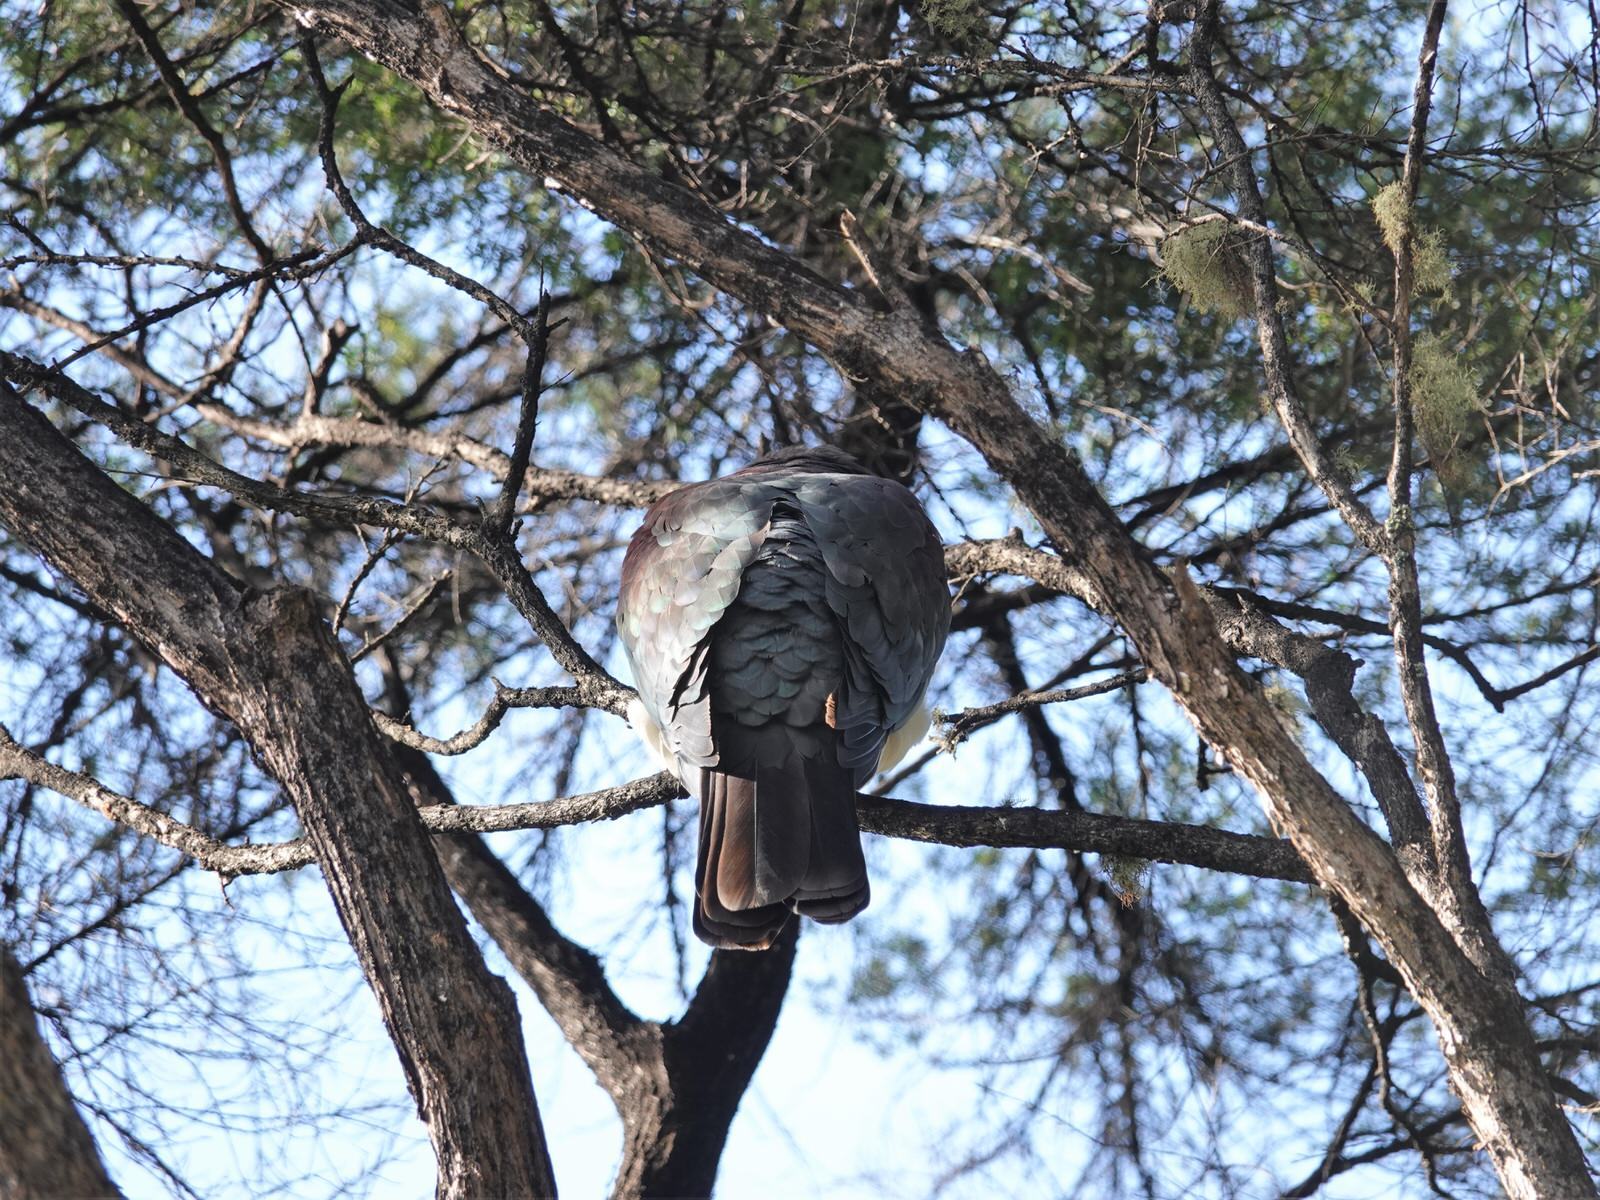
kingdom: Animalia
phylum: Chordata
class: Aves
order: Columbiformes
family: Columbidae
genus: Hemiphaga
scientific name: Hemiphaga novaeseelandiae
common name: New zealand pigeon
